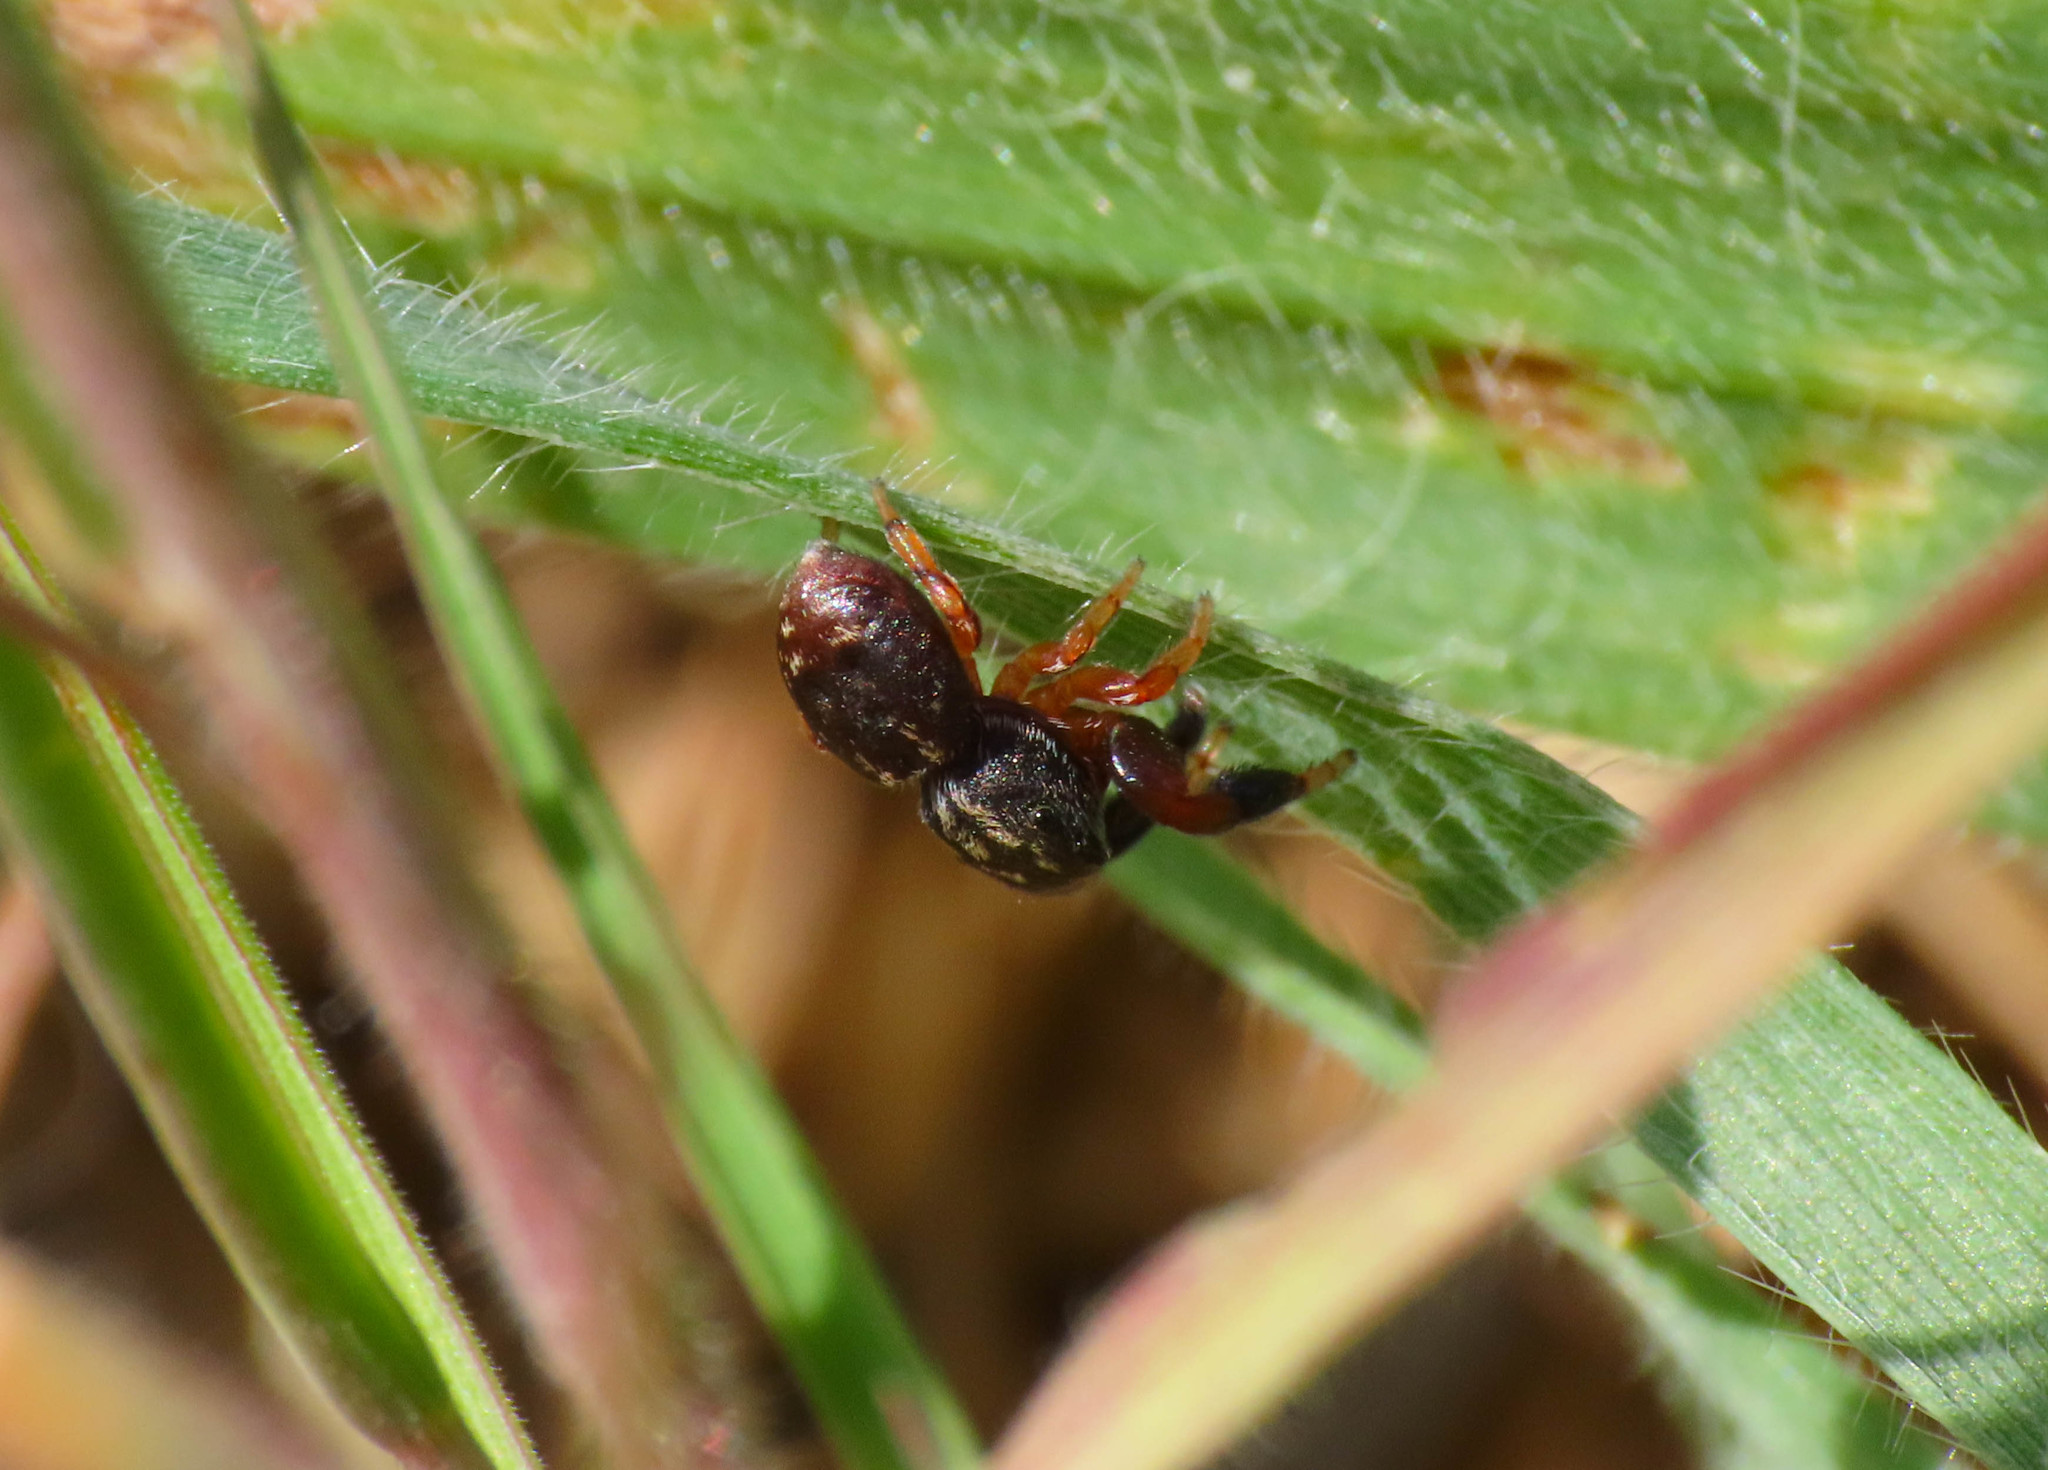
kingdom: Animalia
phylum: Arthropoda
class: Arachnida
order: Araneae
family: Salticidae
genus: Ballus
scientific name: Ballus rufipes
